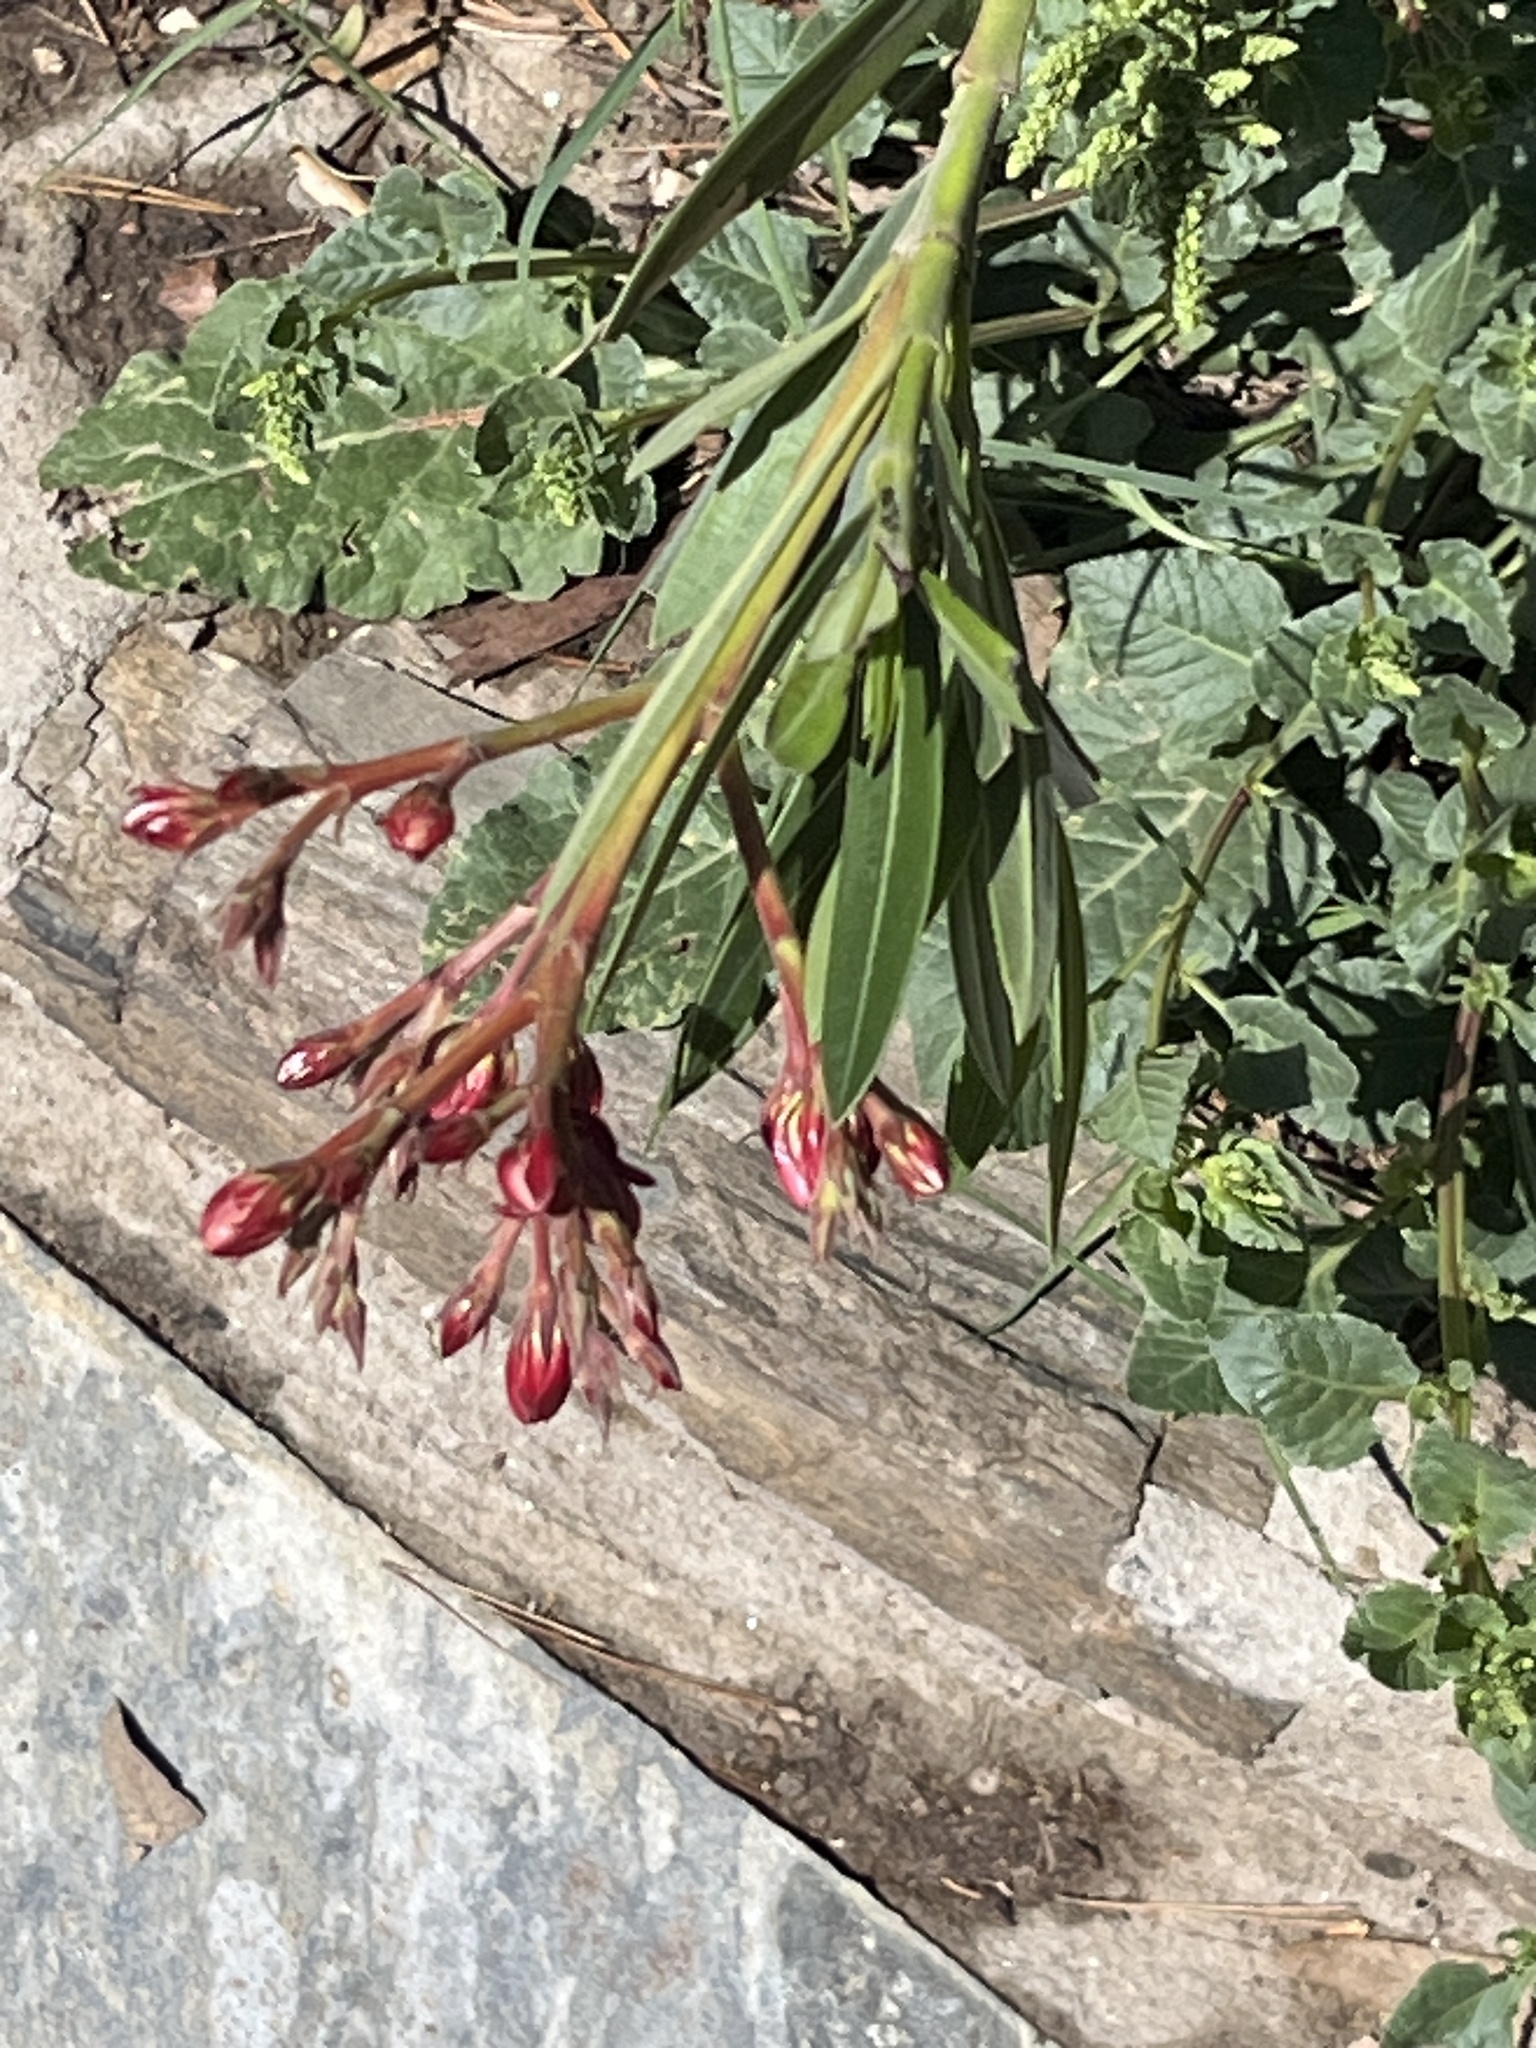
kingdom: Plantae
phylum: Tracheophyta
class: Magnoliopsida
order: Gentianales
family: Apocynaceae
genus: Nerium
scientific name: Nerium oleander
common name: Oleander
